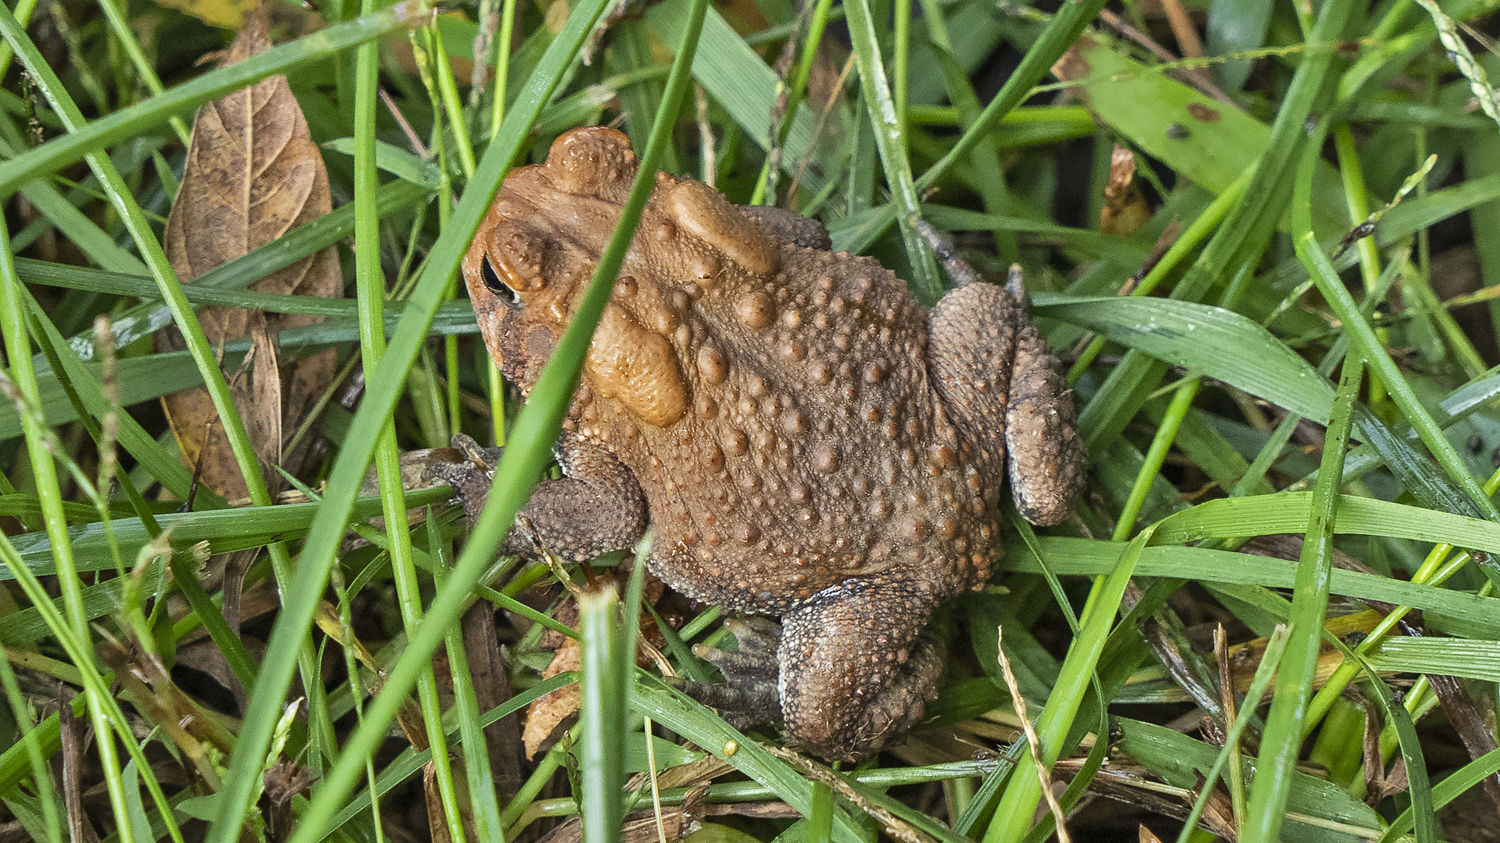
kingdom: Animalia
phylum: Chordata
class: Amphibia
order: Anura
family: Bufonidae
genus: Anaxyrus
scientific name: Anaxyrus americanus
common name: American toad
